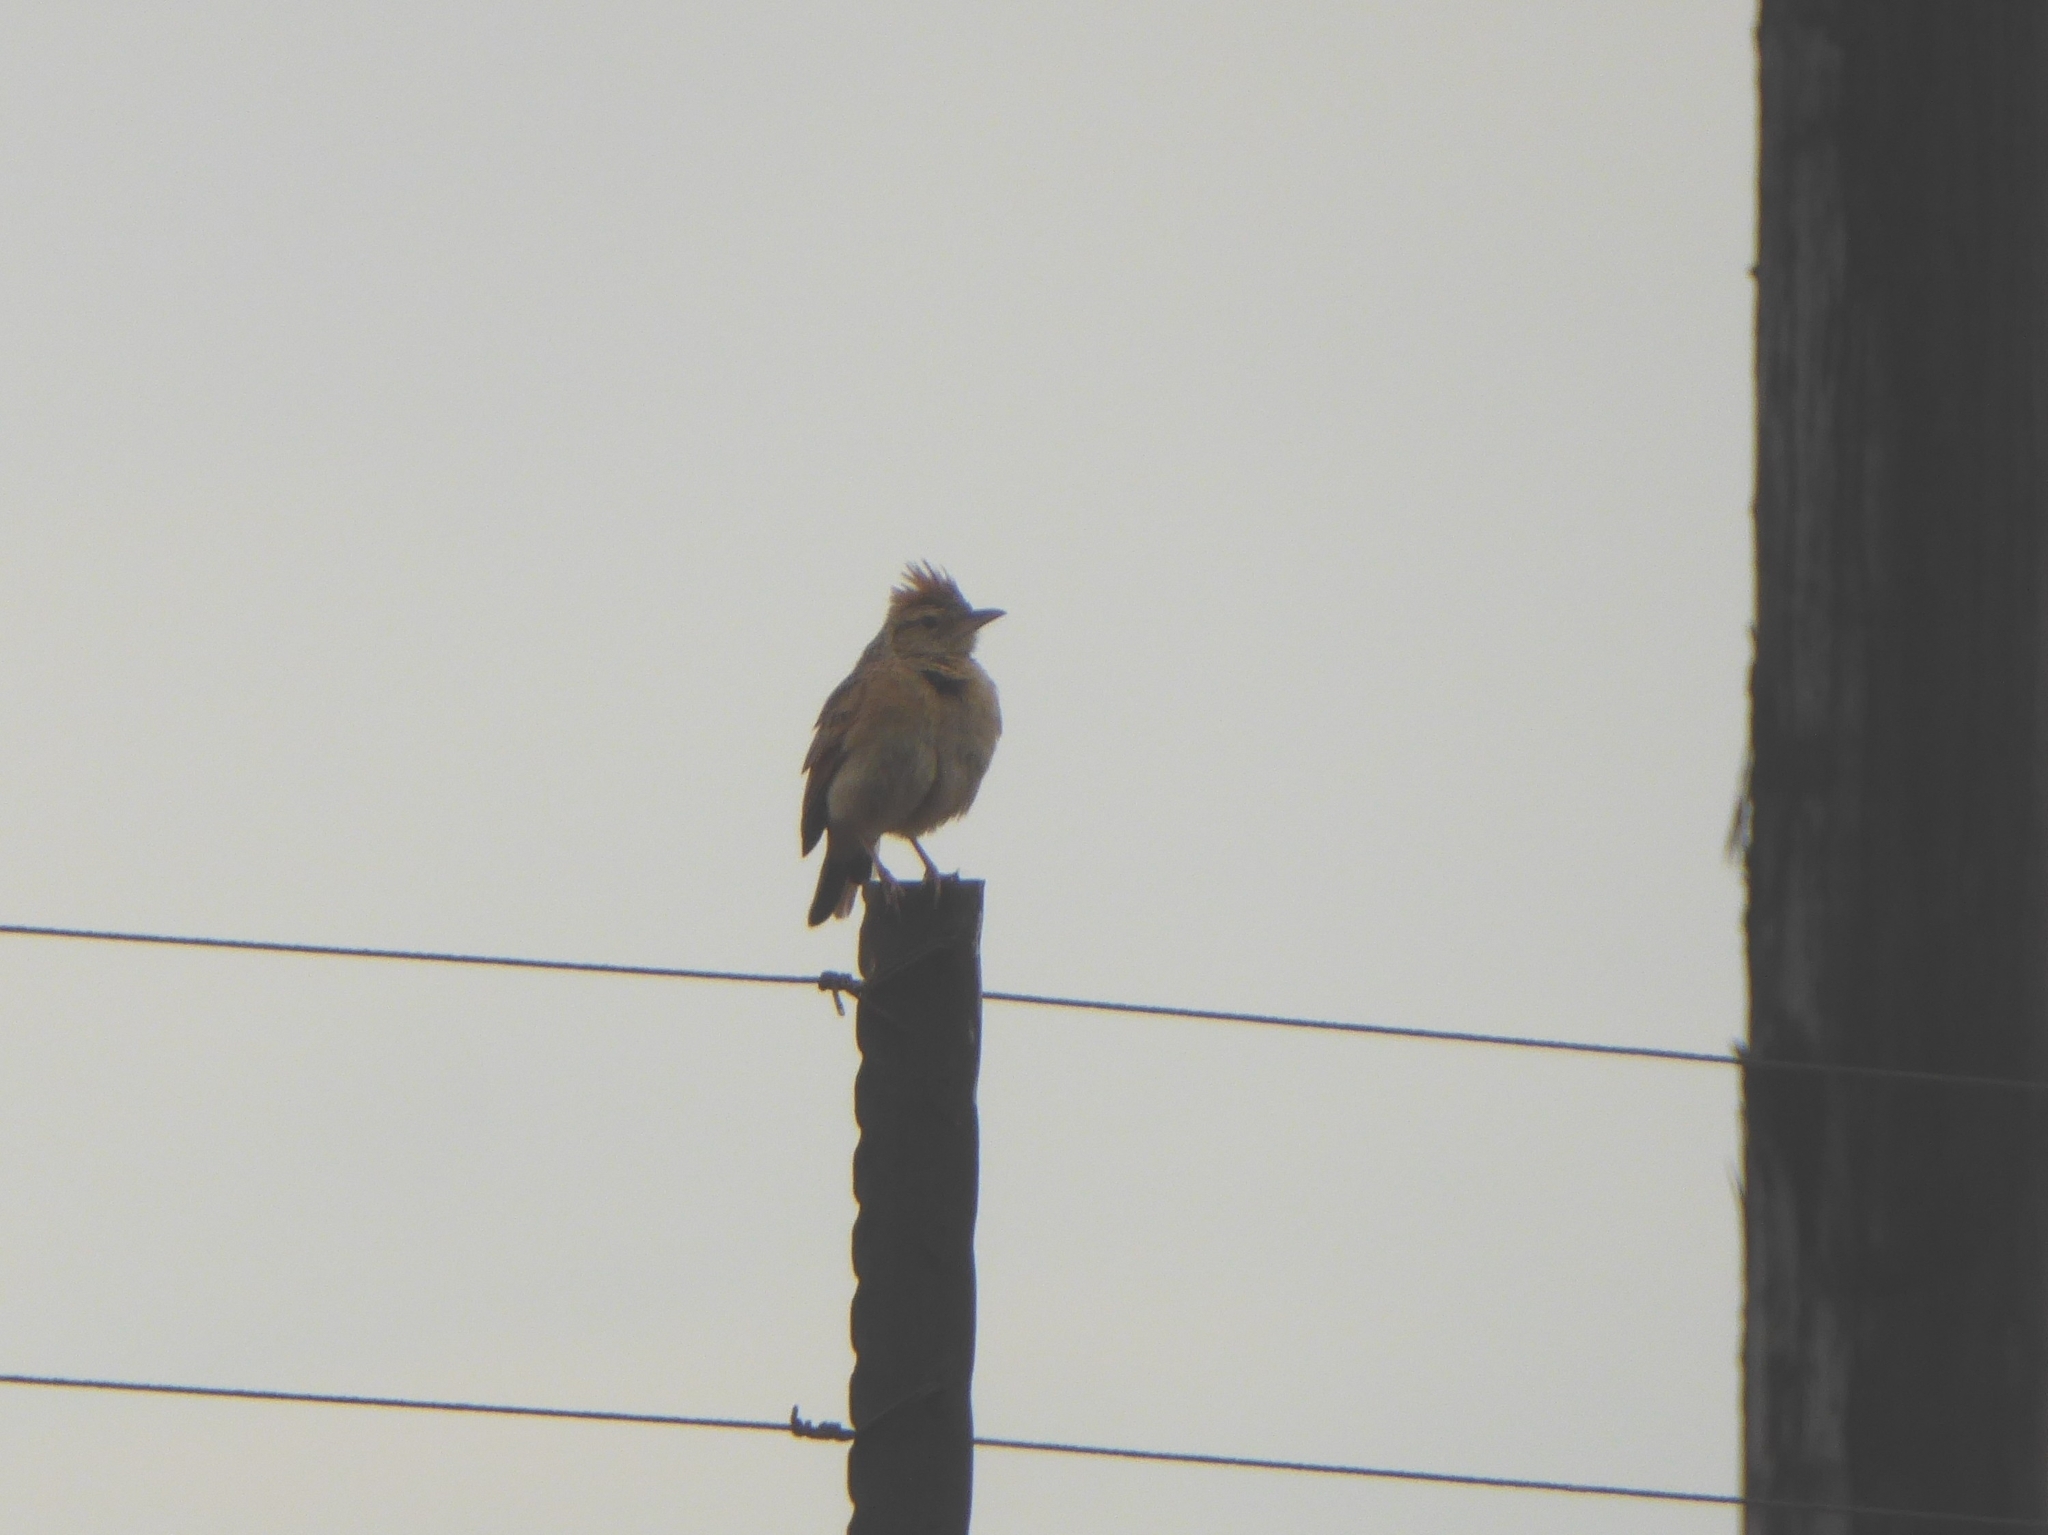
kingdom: Animalia
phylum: Chordata
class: Aves
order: Passeriformes
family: Alaudidae
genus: Mirafra
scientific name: Mirafra africana
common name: Rufous-naped lark
